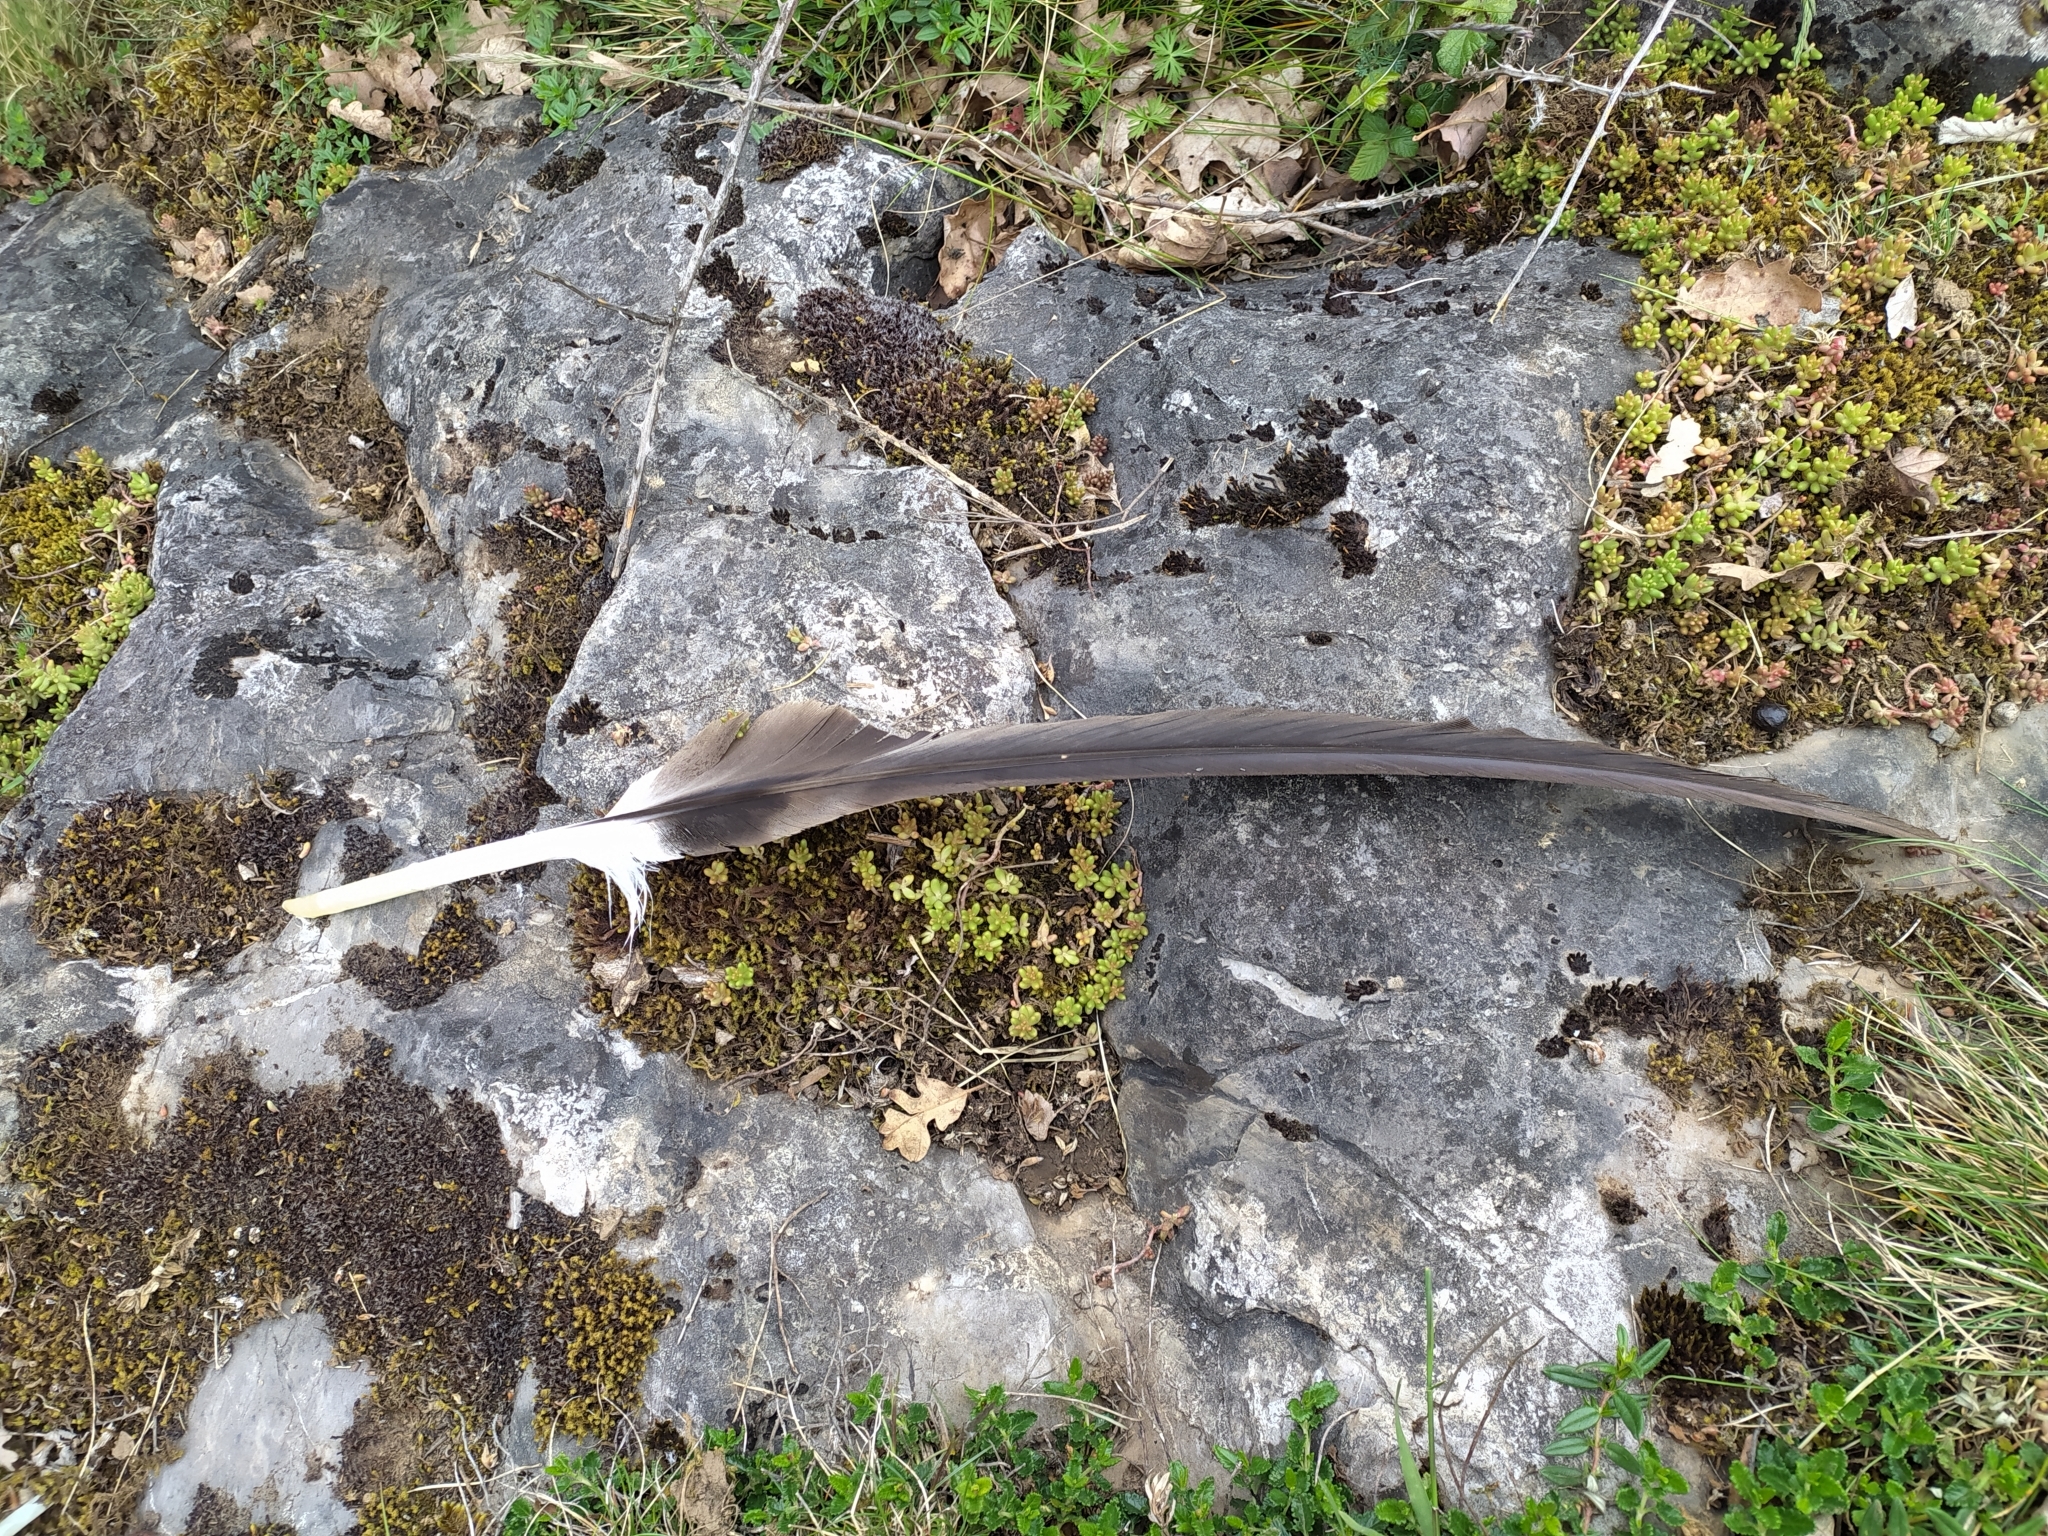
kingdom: Animalia
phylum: Chordata
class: Aves
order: Accipitriformes
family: Accipitridae
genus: Gyps
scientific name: Gyps fulvus
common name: Griffon vulture
